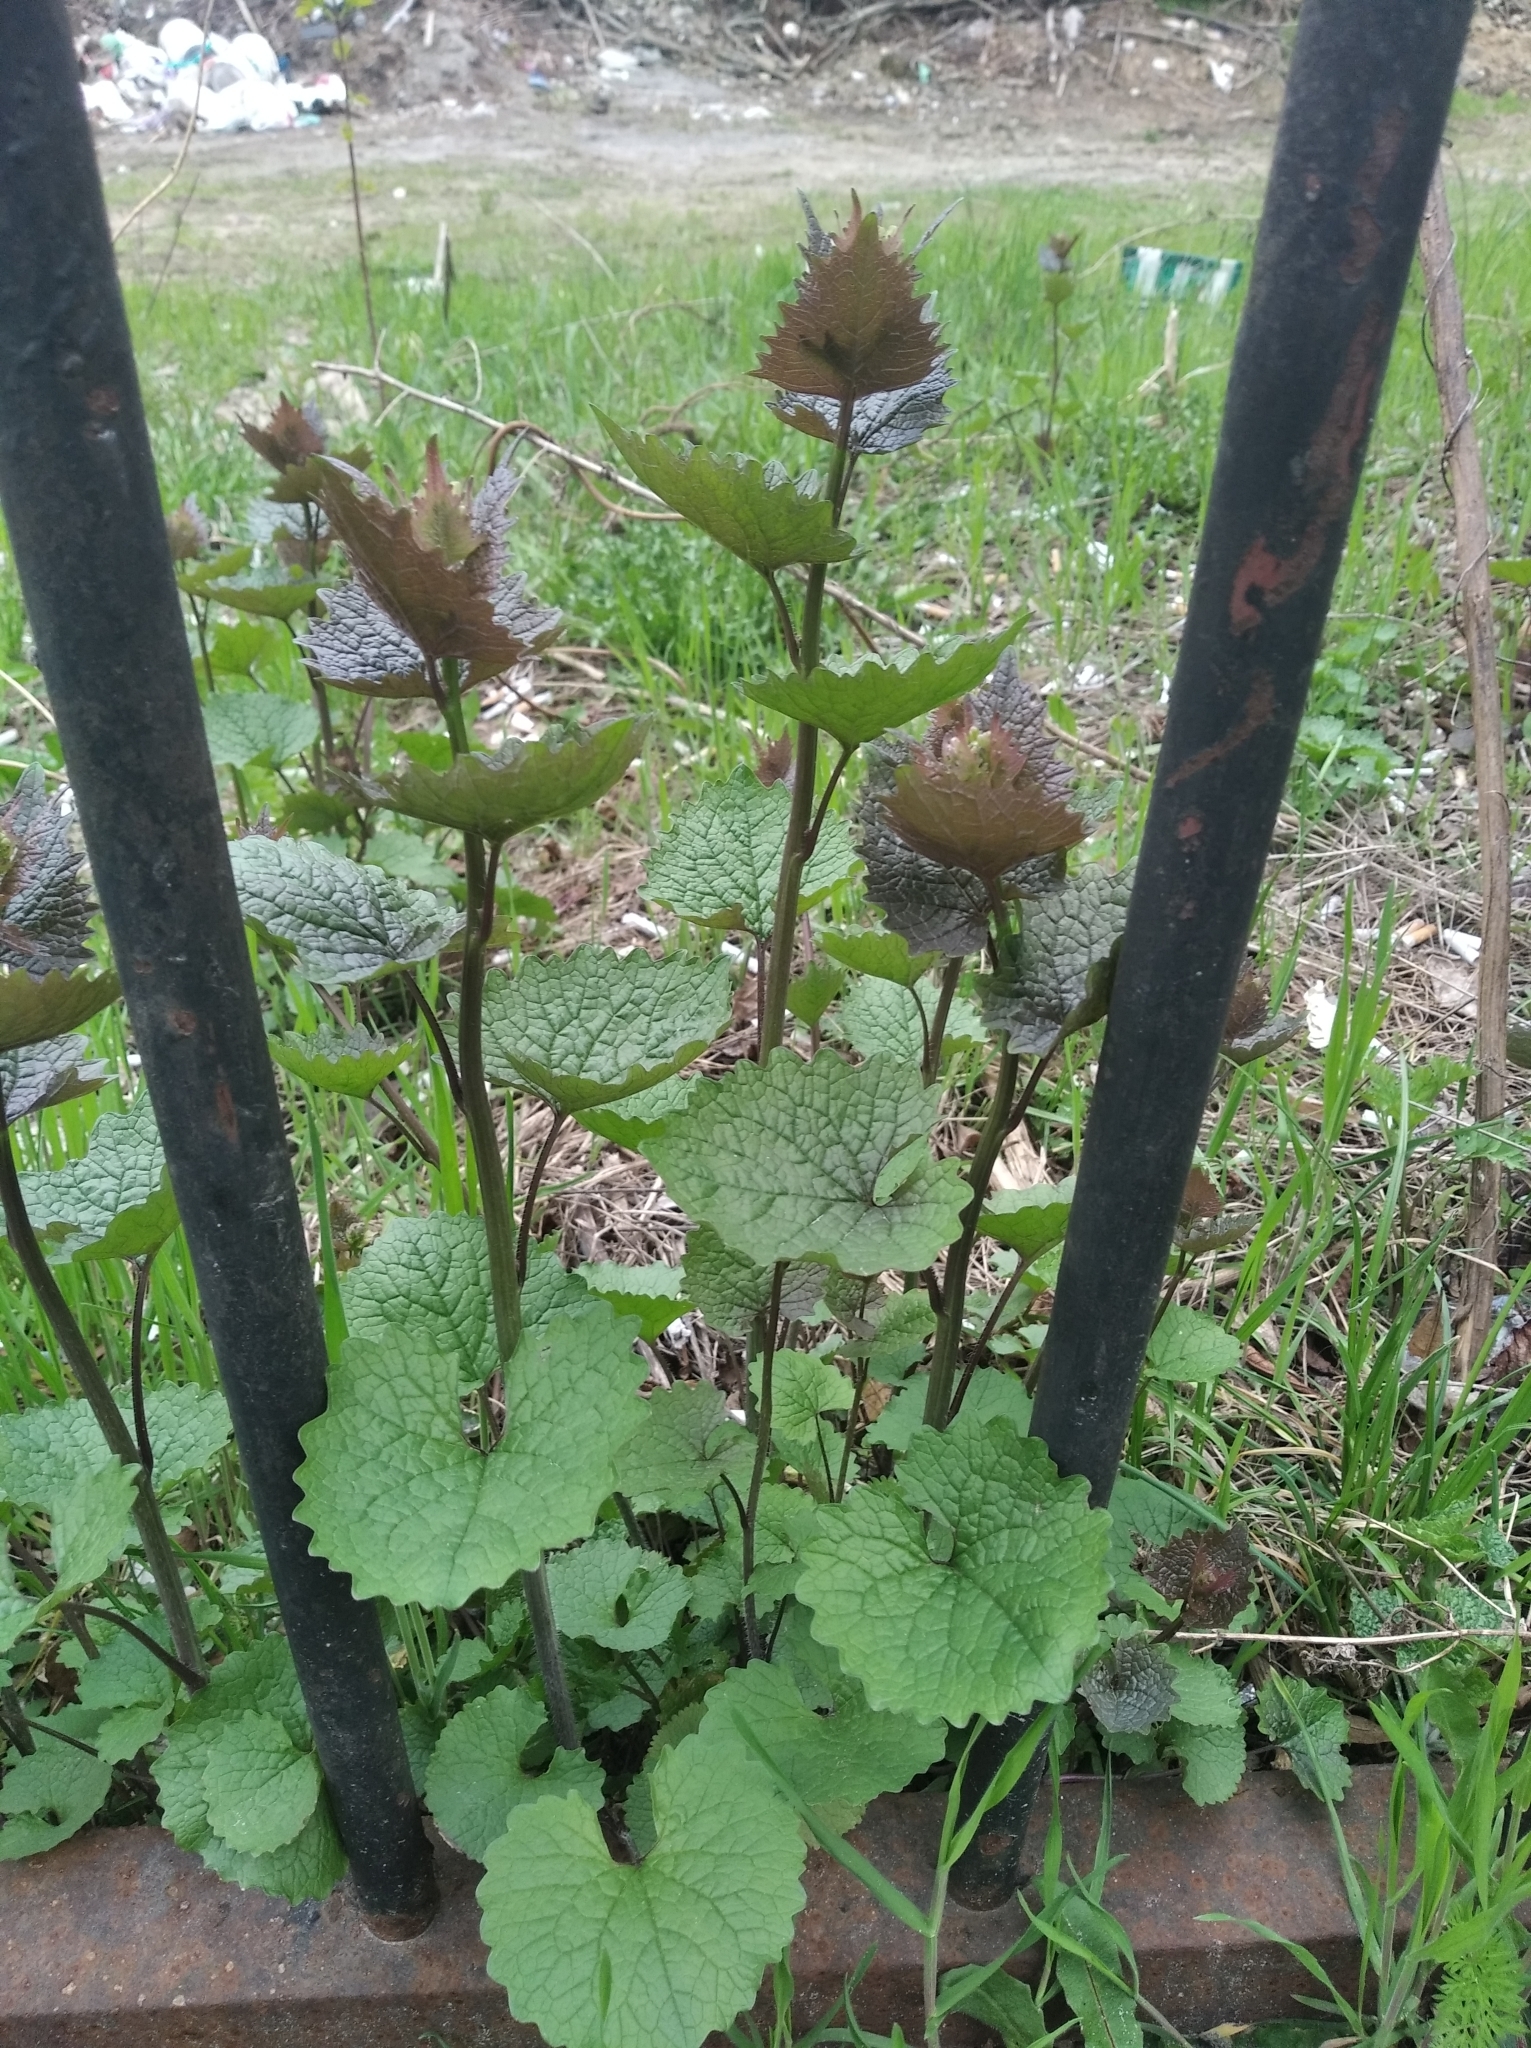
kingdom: Plantae
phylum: Tracheophyta
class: Magnoliopsida
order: Brassicales
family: Brassicaceae
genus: Alliaria
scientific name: Alliaria petiolata
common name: Garlic mustard
